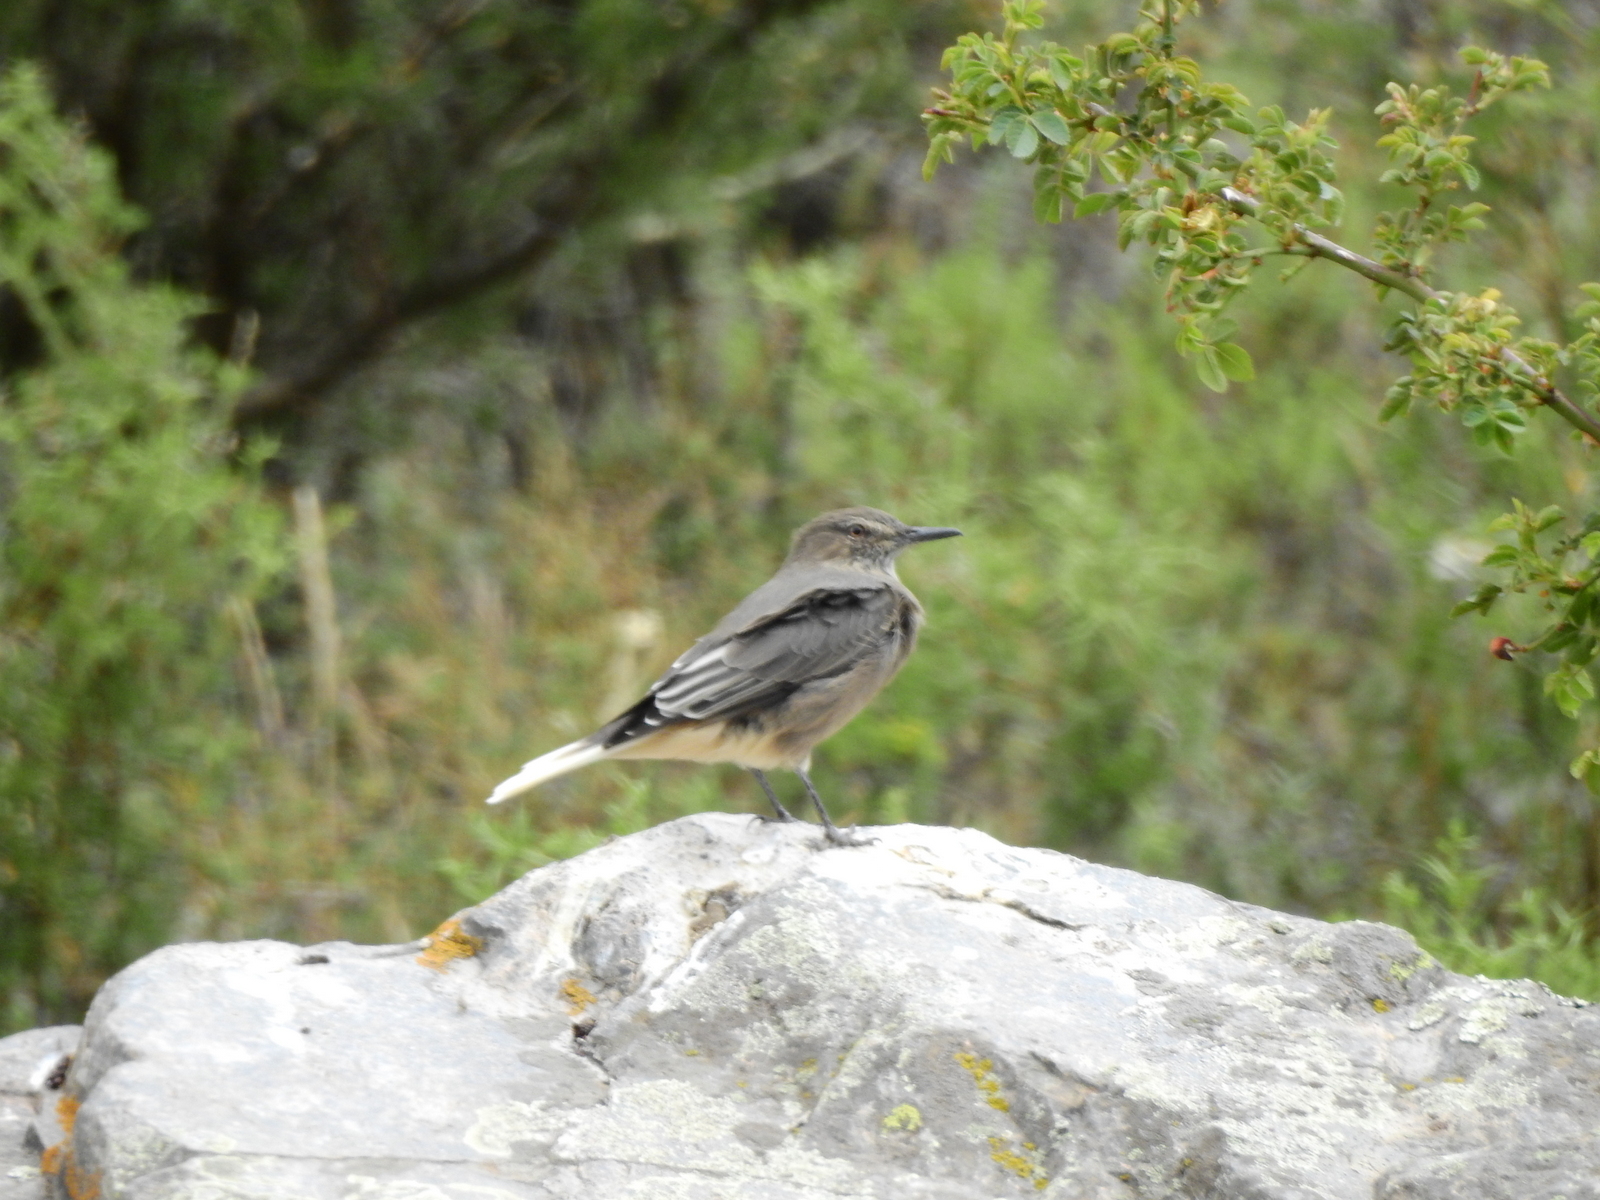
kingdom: Animalia
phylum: Chordata
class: Aves
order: Passeriformes
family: Tyrannidae
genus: Agriornis
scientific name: Agriornis montanus
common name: Black-billed shrike-tyrant
